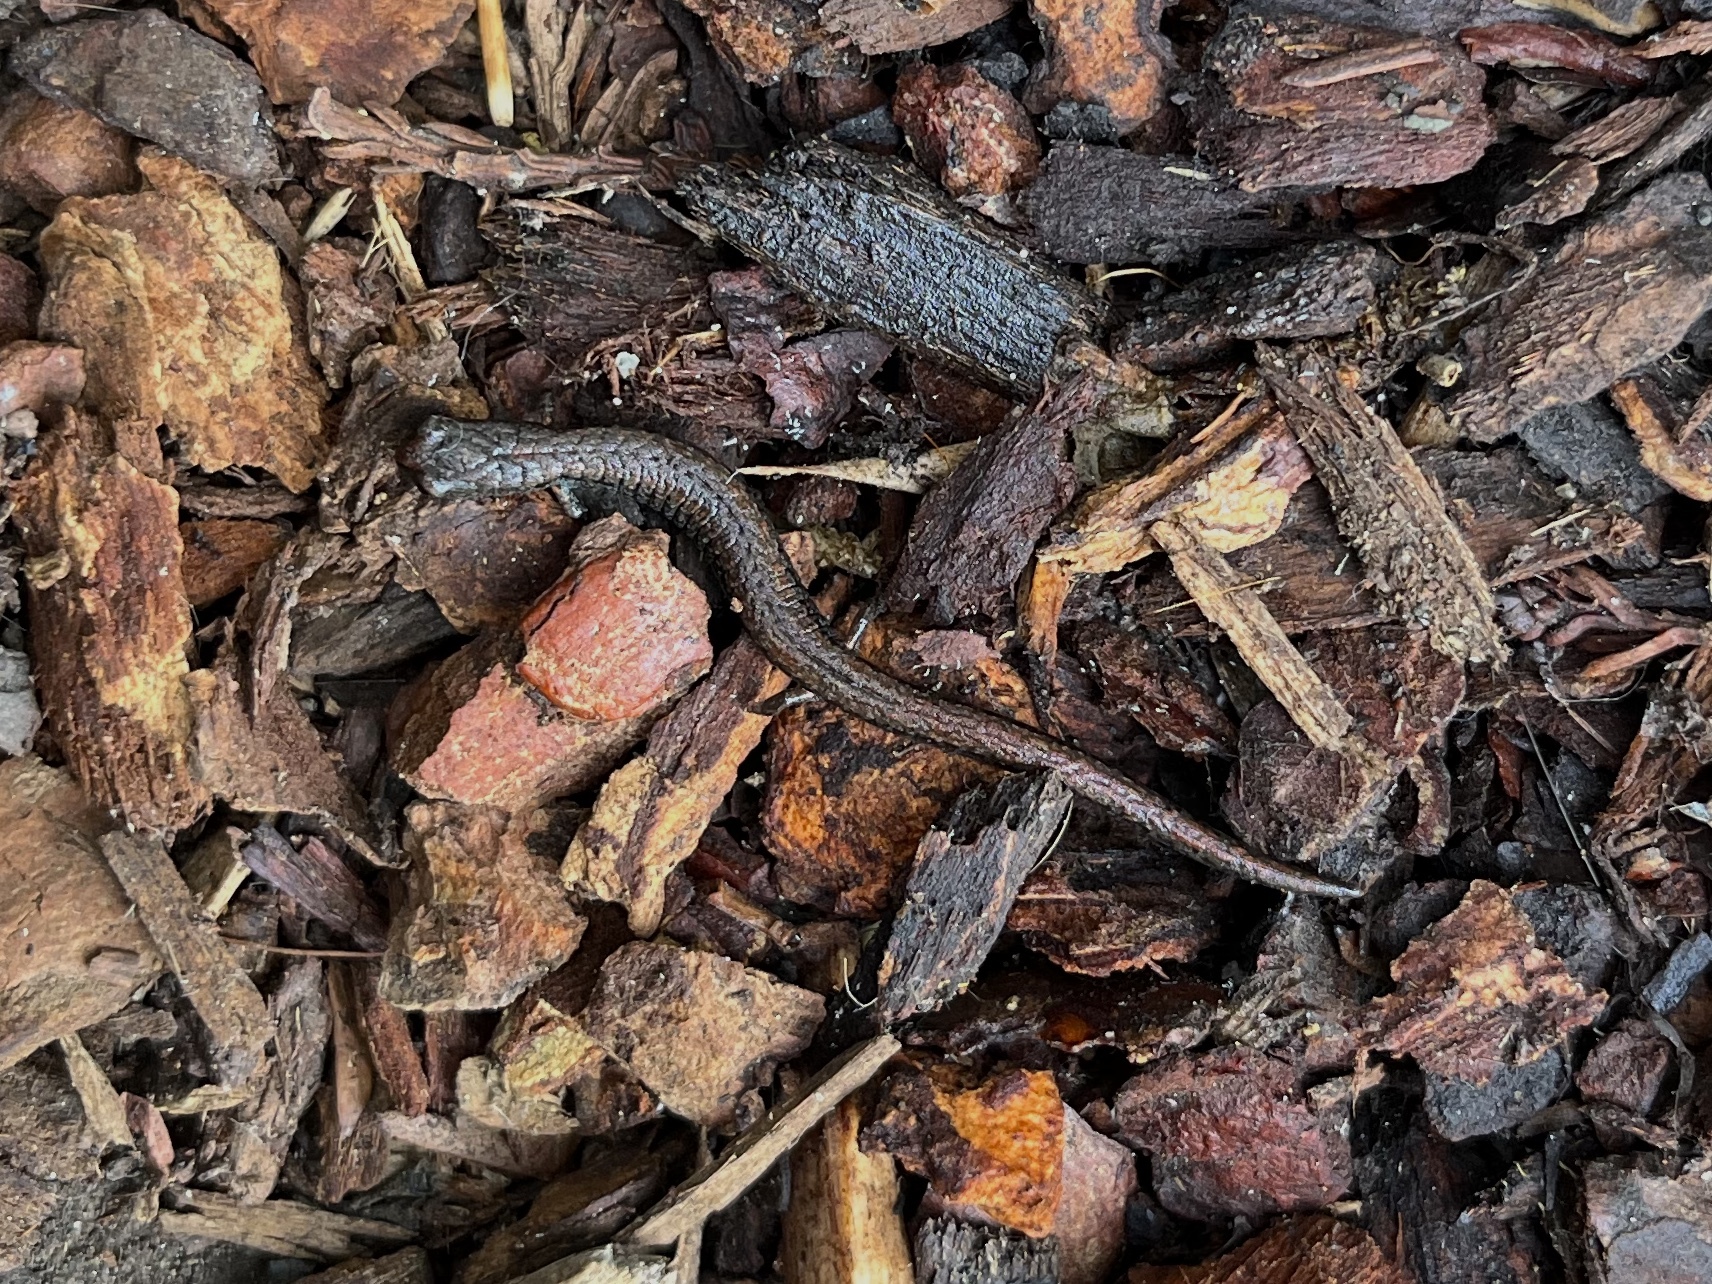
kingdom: Animalia
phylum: Chordata
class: Amphibia
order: Caudata
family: Plethodontidae
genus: Batrachoseps
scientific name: Batrachoseps attenuatus
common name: California slender salamander
